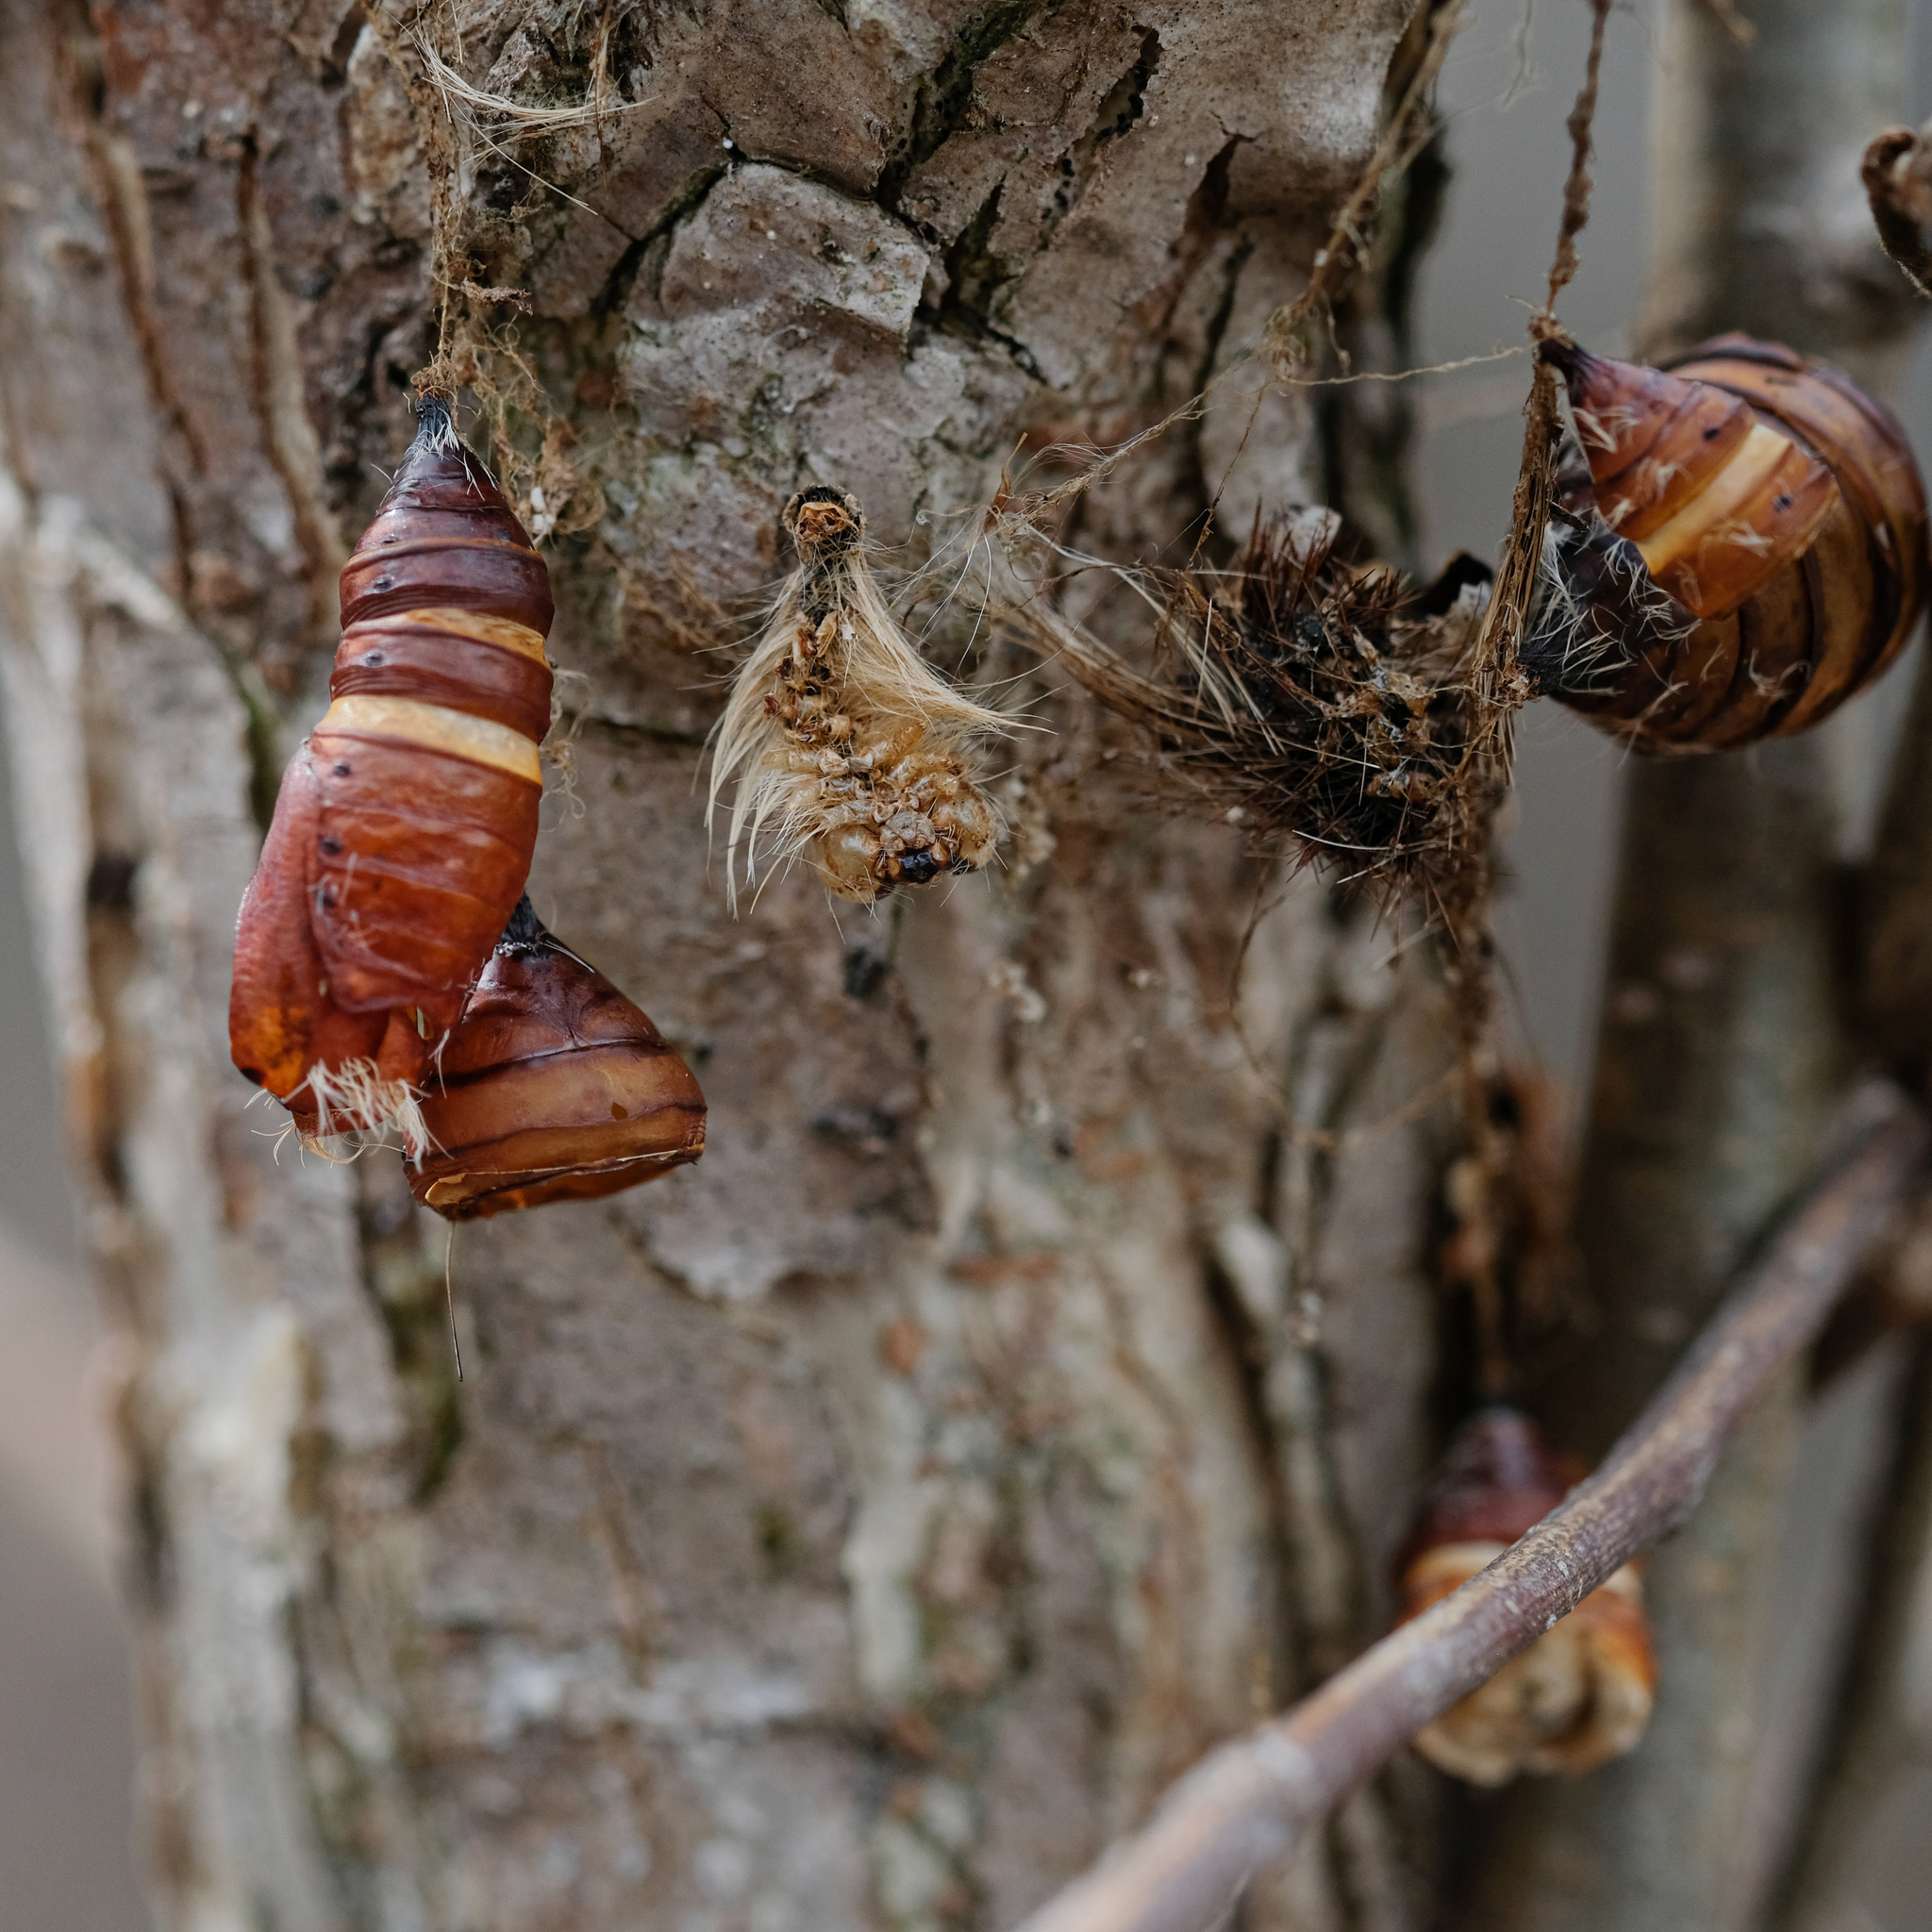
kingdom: Animalia
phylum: Arthropoda
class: Insecta
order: Lepidoptera
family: Erebidae
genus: Lymantria
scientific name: Lymantria dispar
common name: Gypsy moth
